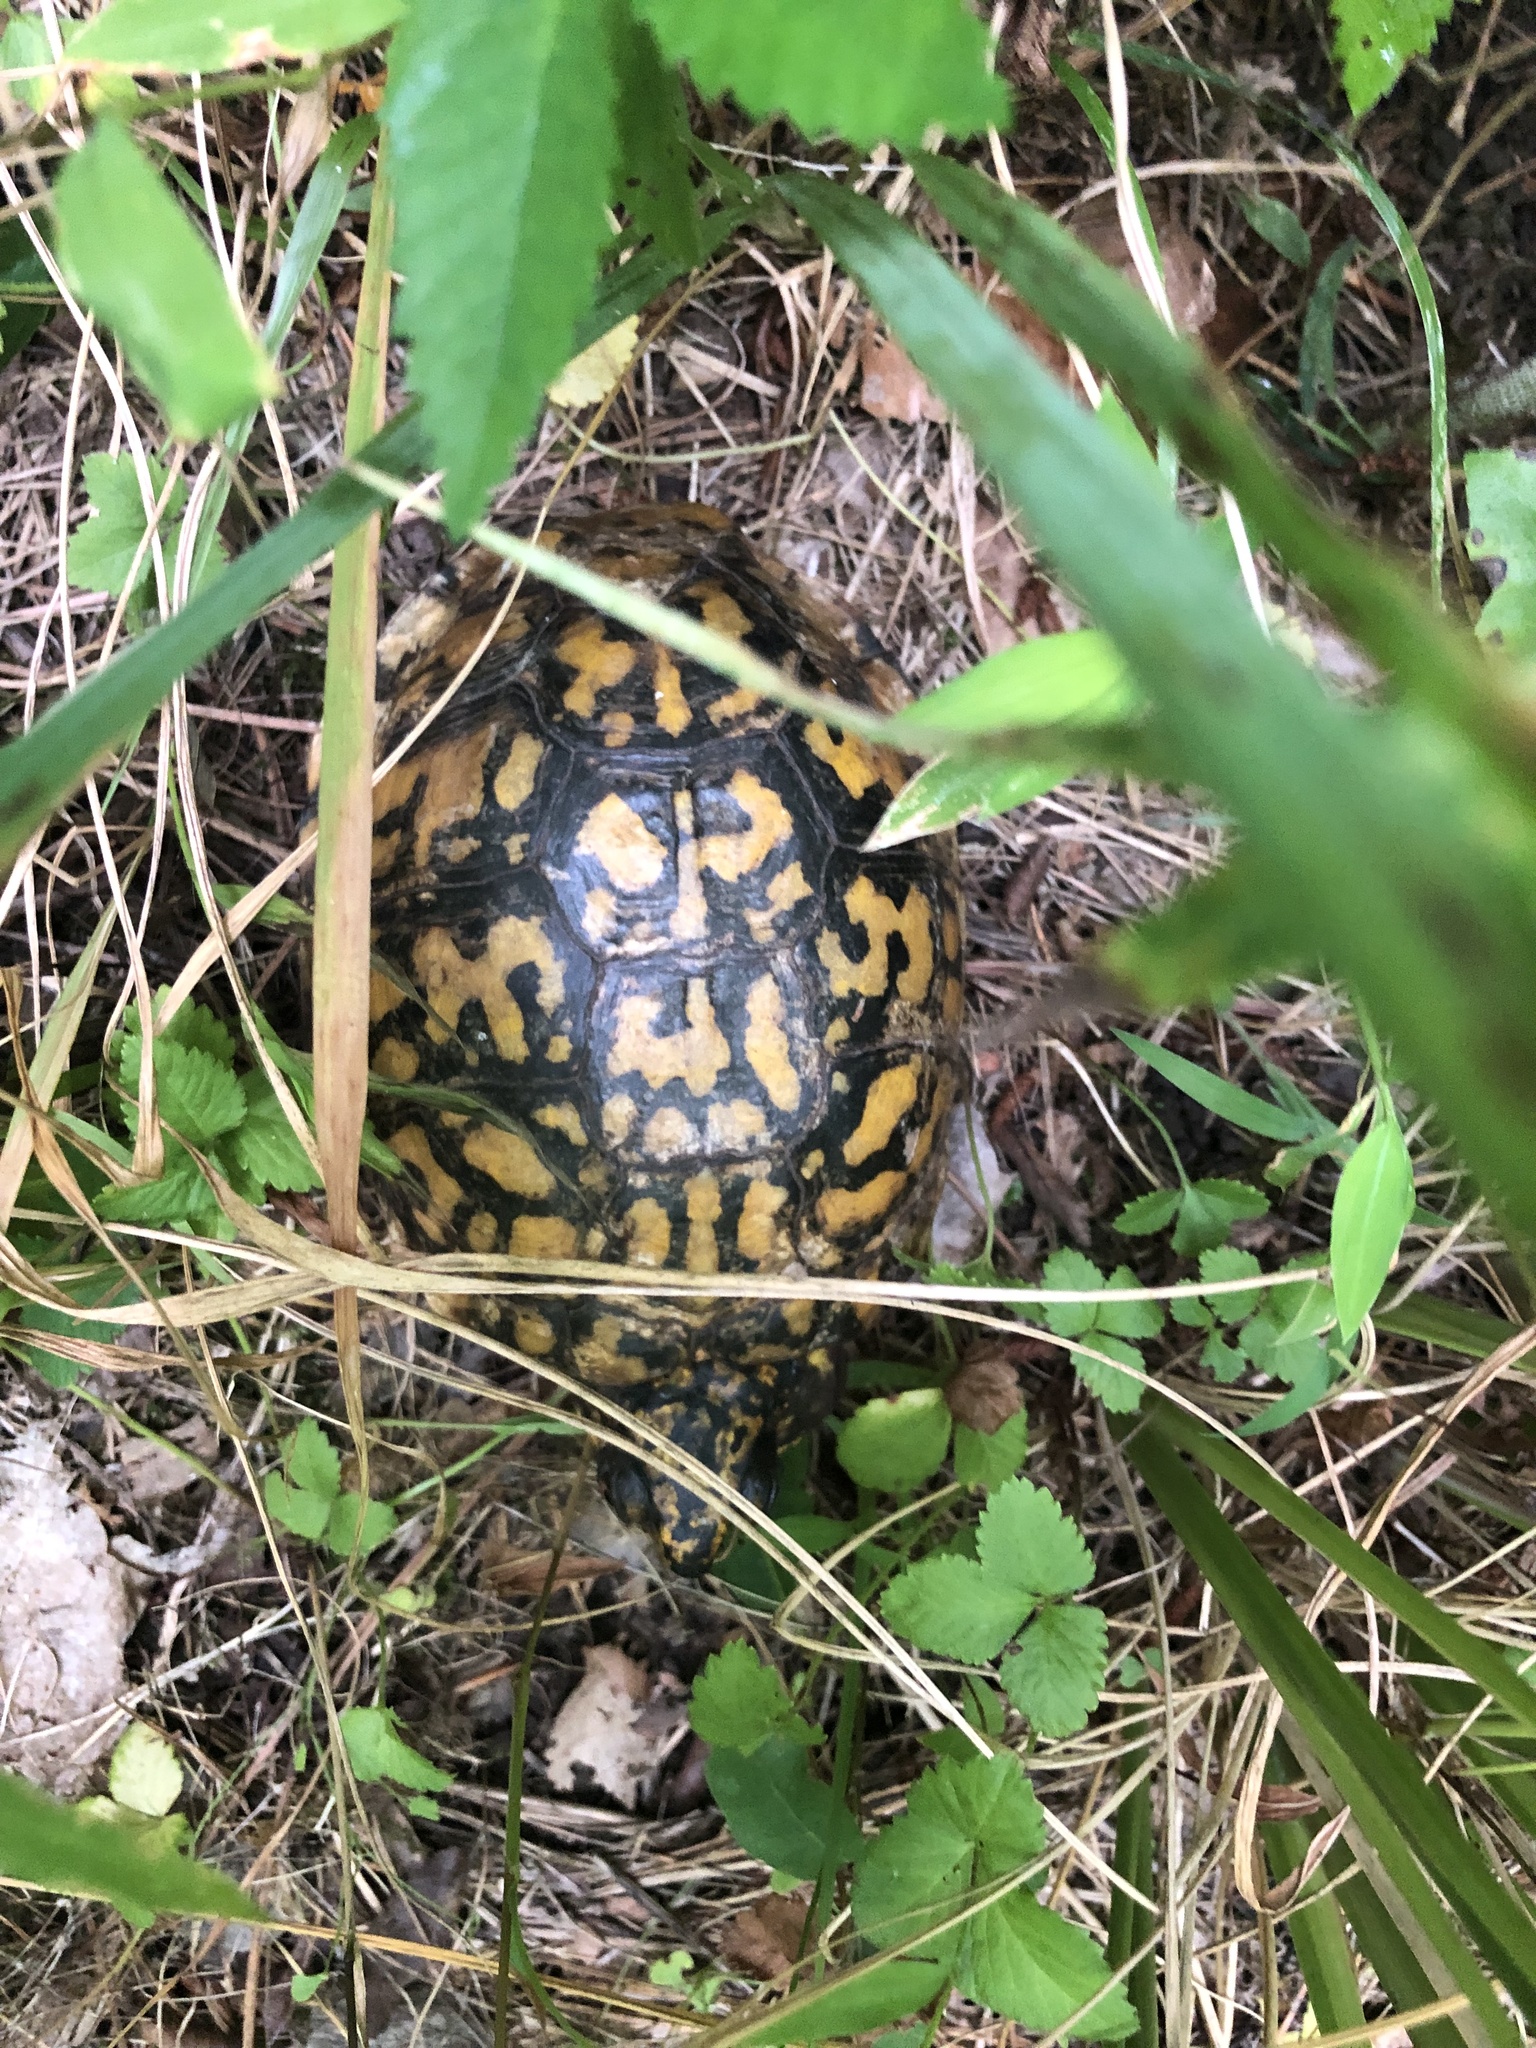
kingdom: Animalia
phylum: Chordata
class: Testudines
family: Emydidae
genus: Terrapene
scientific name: Terrapene carolina
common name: Common box turtle
